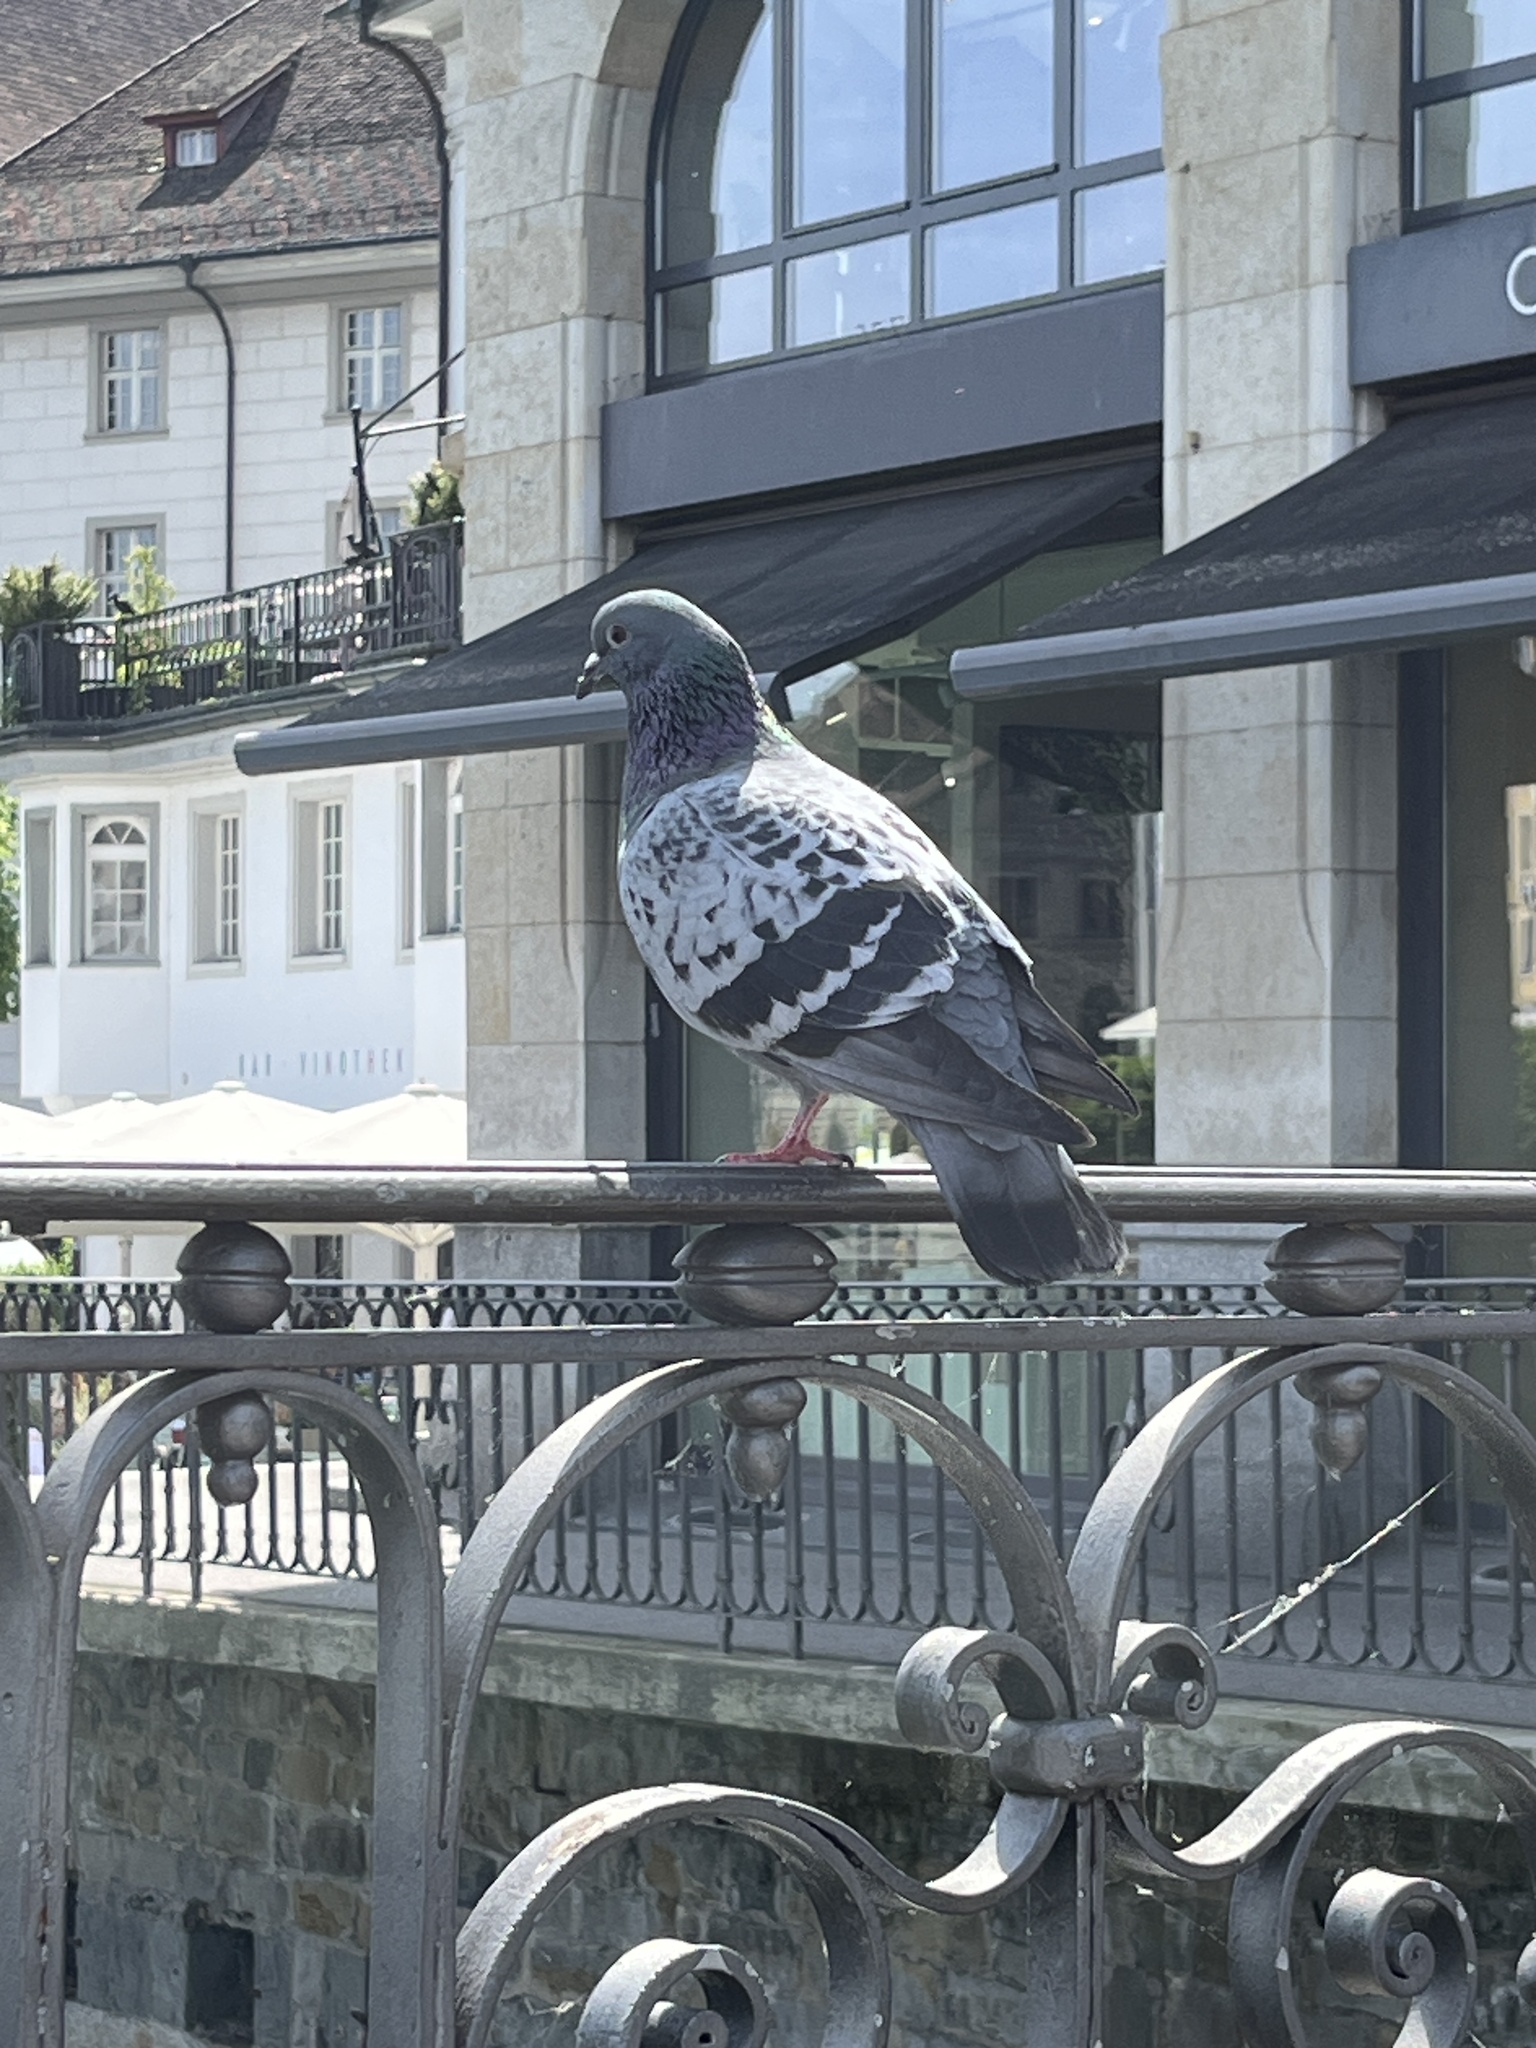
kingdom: Animalia
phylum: Chordata
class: Aves
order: Columbiformes
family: Columbidae
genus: Columba
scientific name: Columba livia
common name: Rock pigeon
